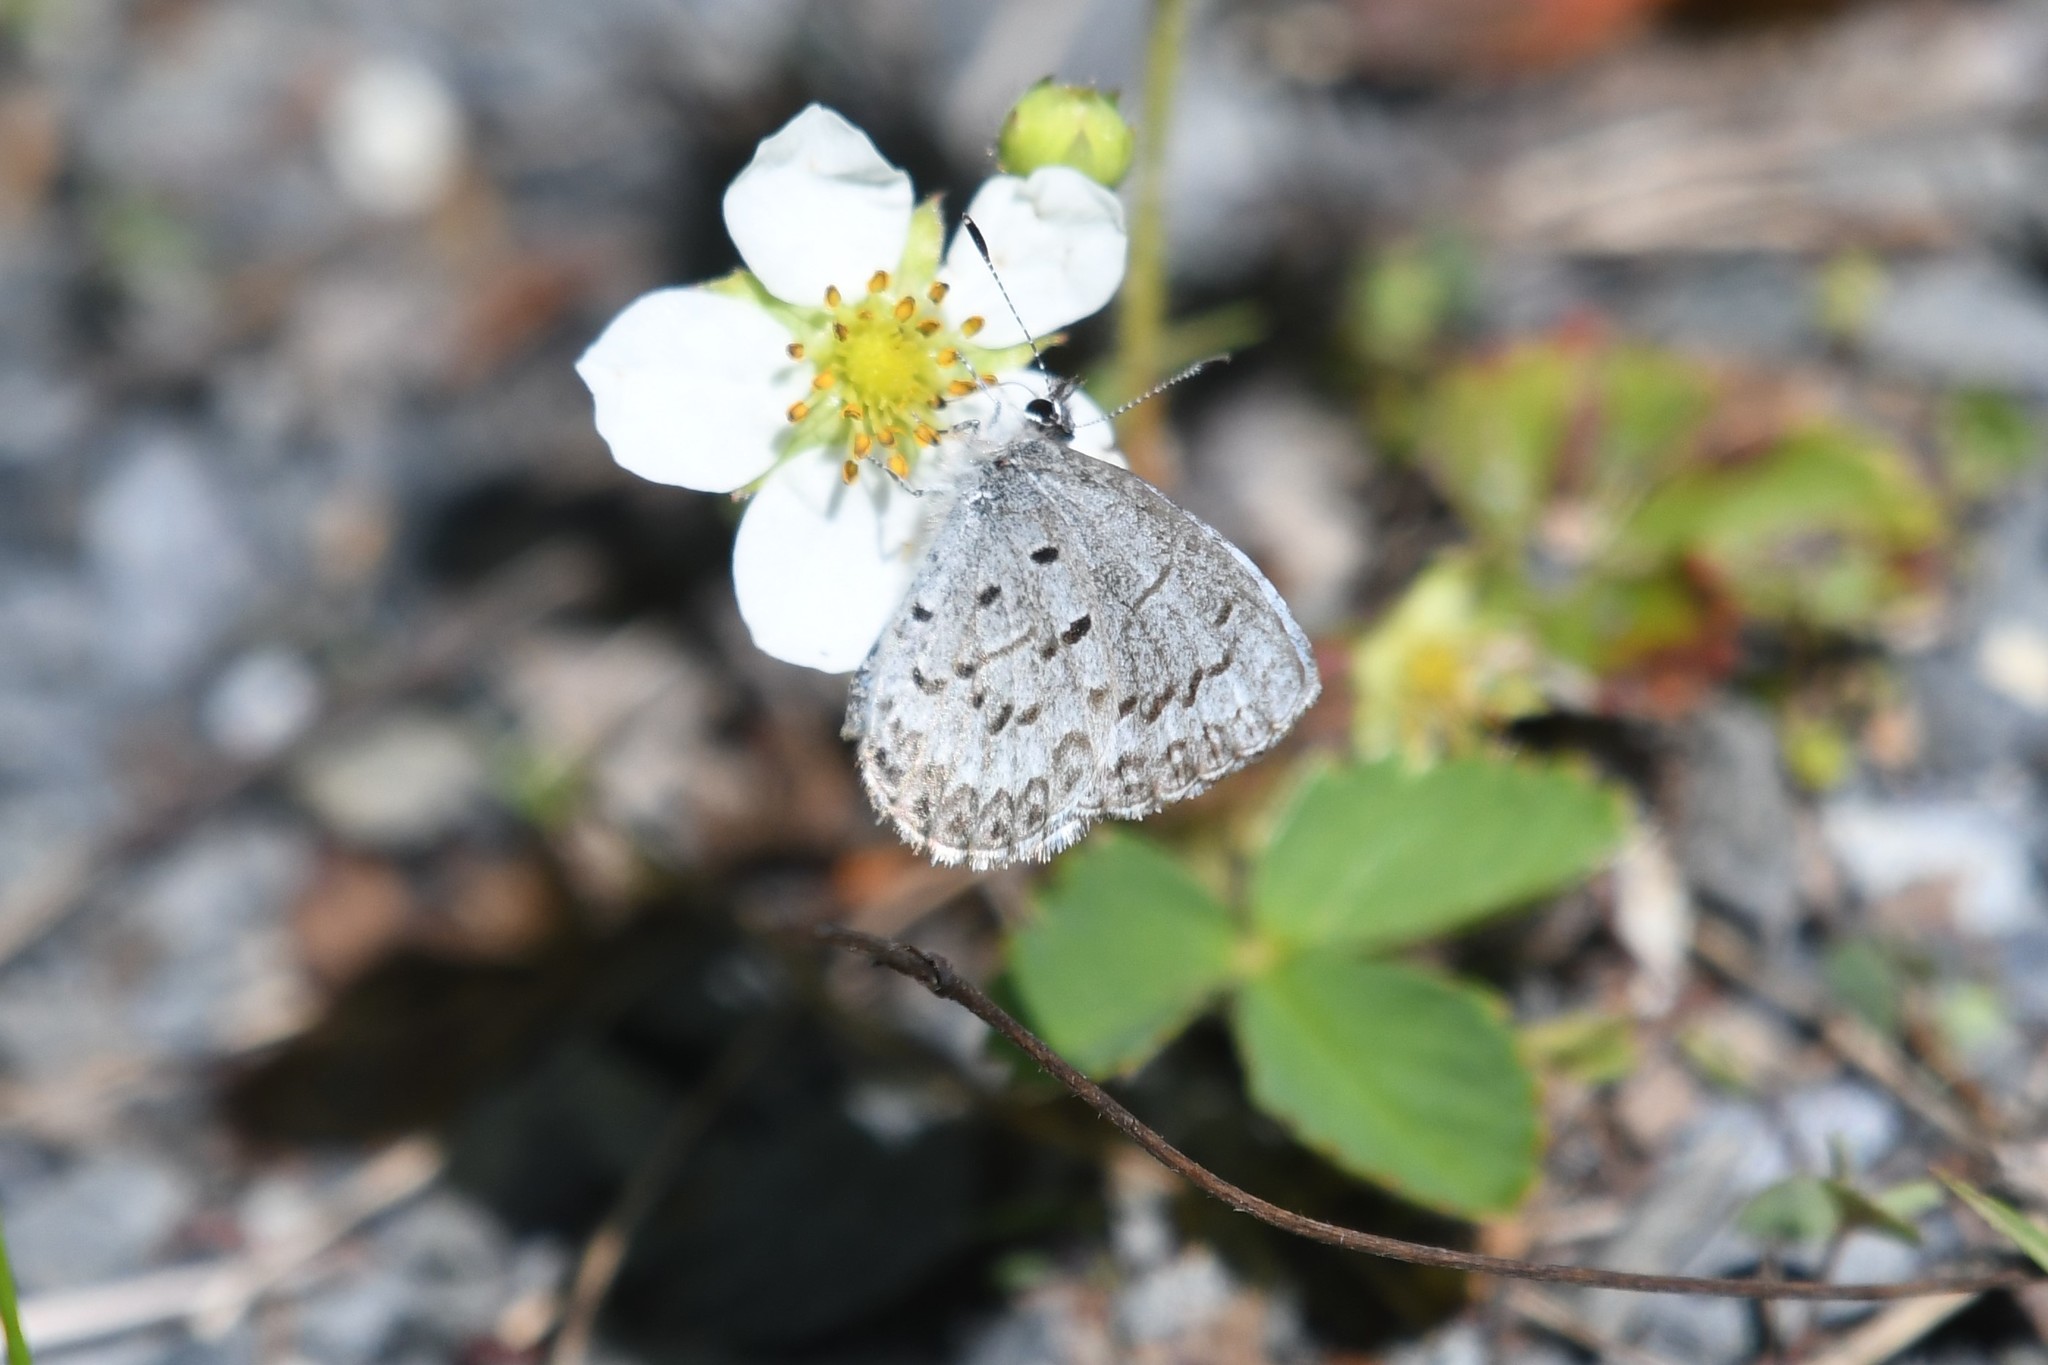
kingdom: Animalia
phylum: Arthropoda
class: Insecta
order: Lepidoptera
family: Lycaenidae
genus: Celastrina
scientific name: Celastrina lucia
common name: Lucia azure
